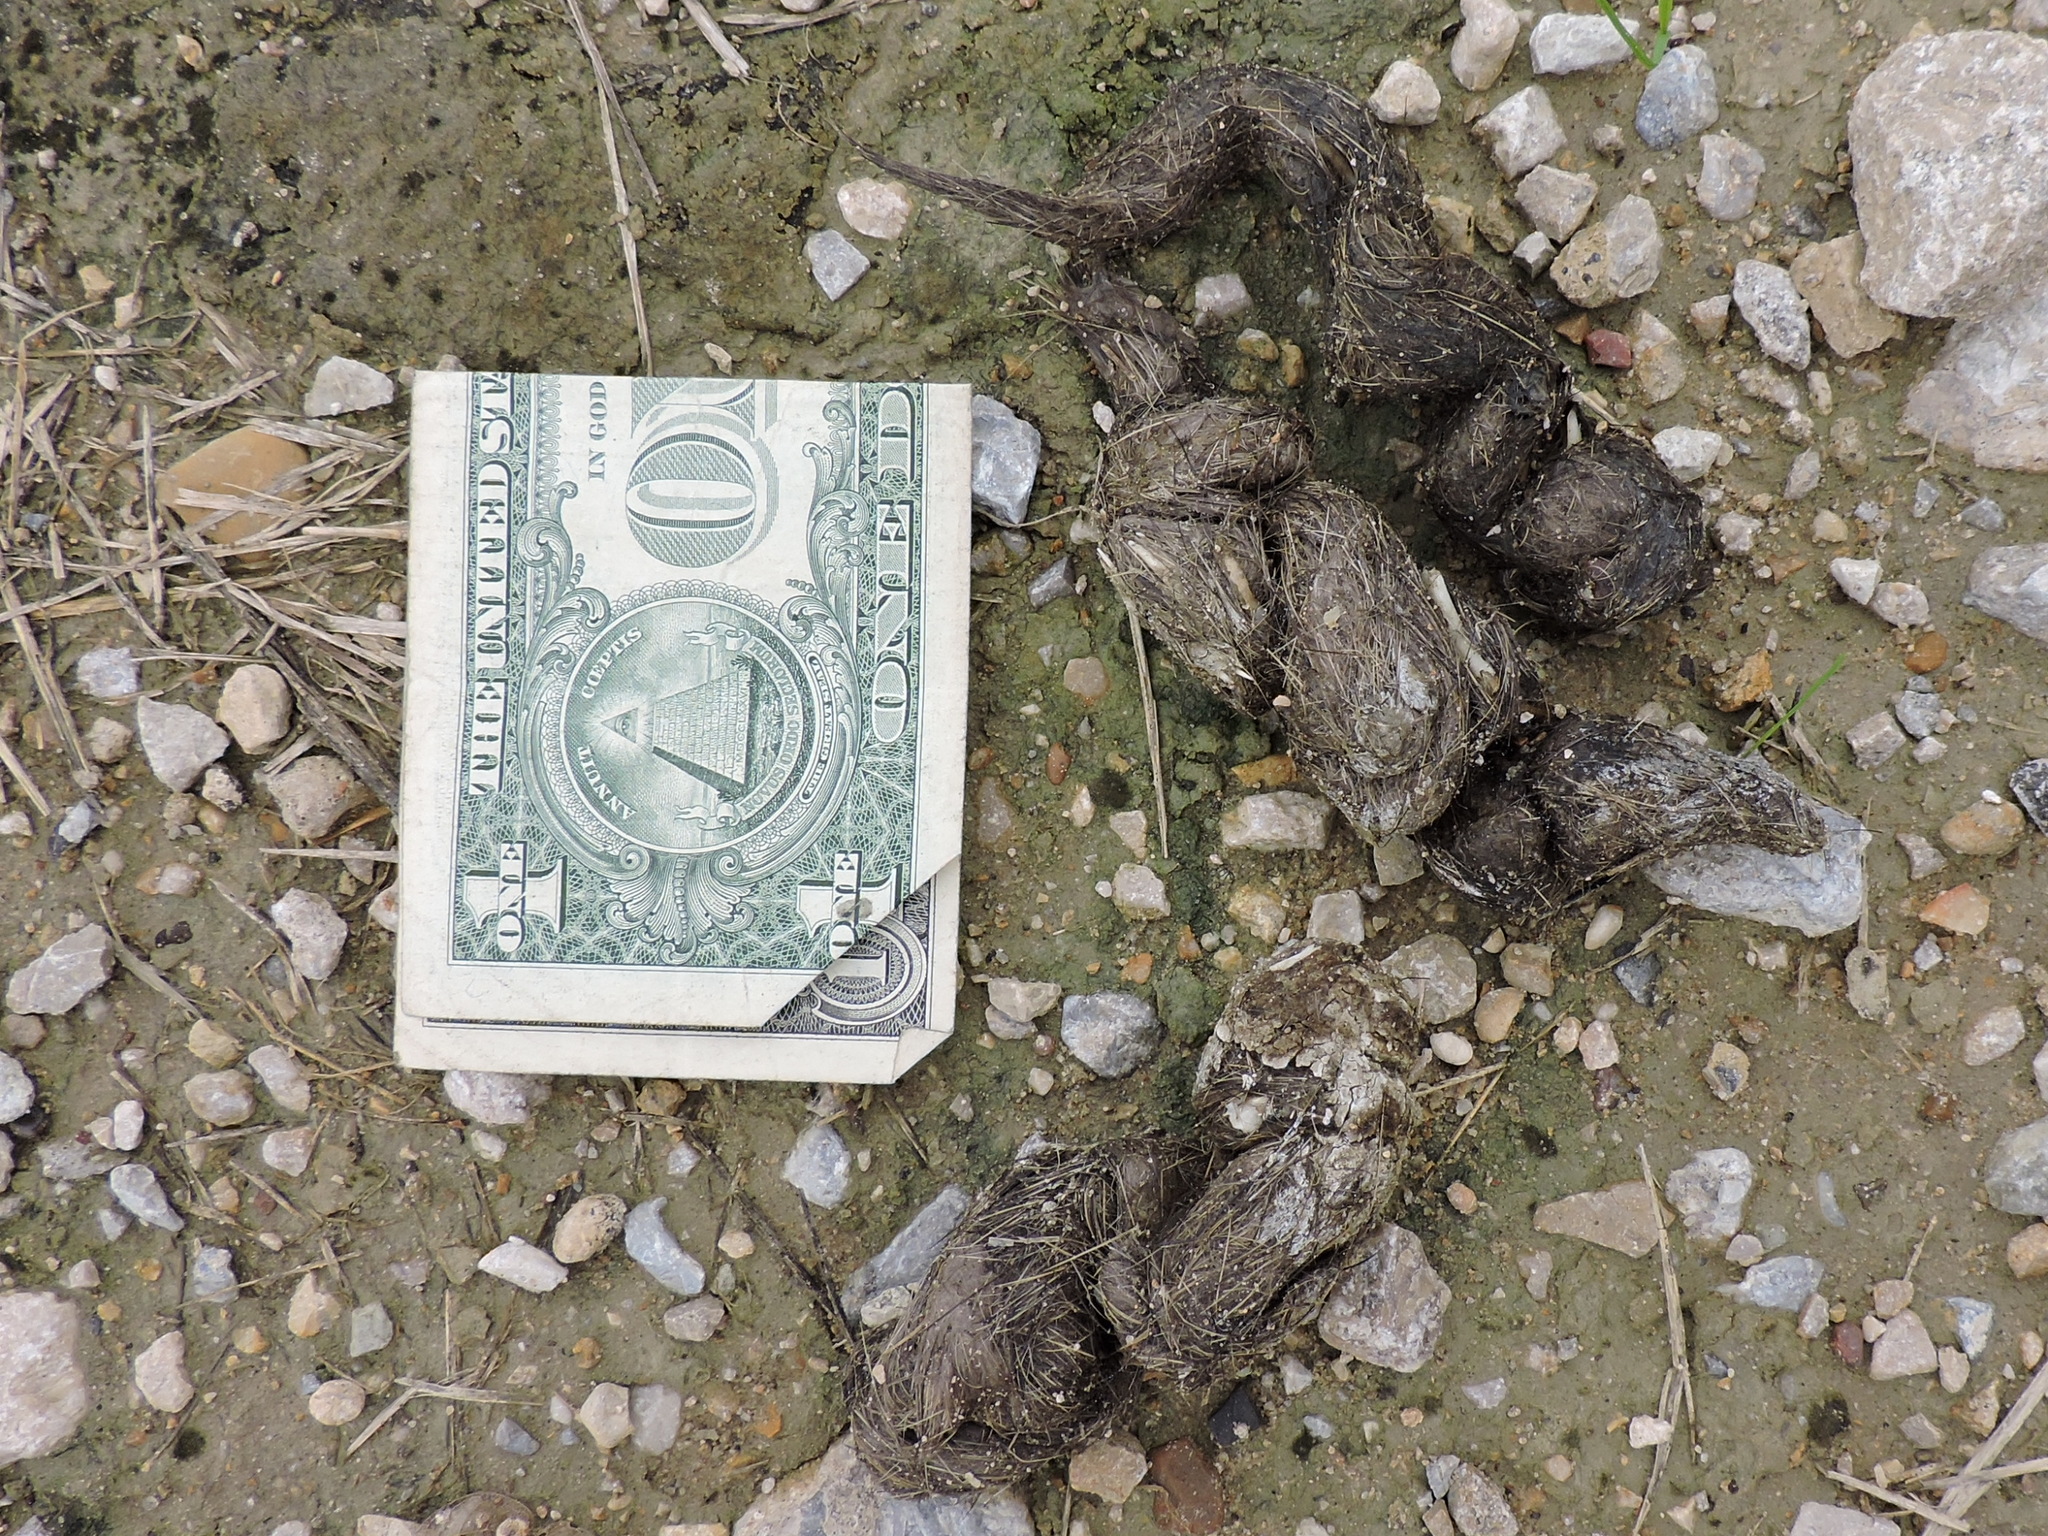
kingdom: Animalia
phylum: Chordata
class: Mammalia
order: Carnivora
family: Canidae
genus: Canis
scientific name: Canis latrans
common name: Coyote
